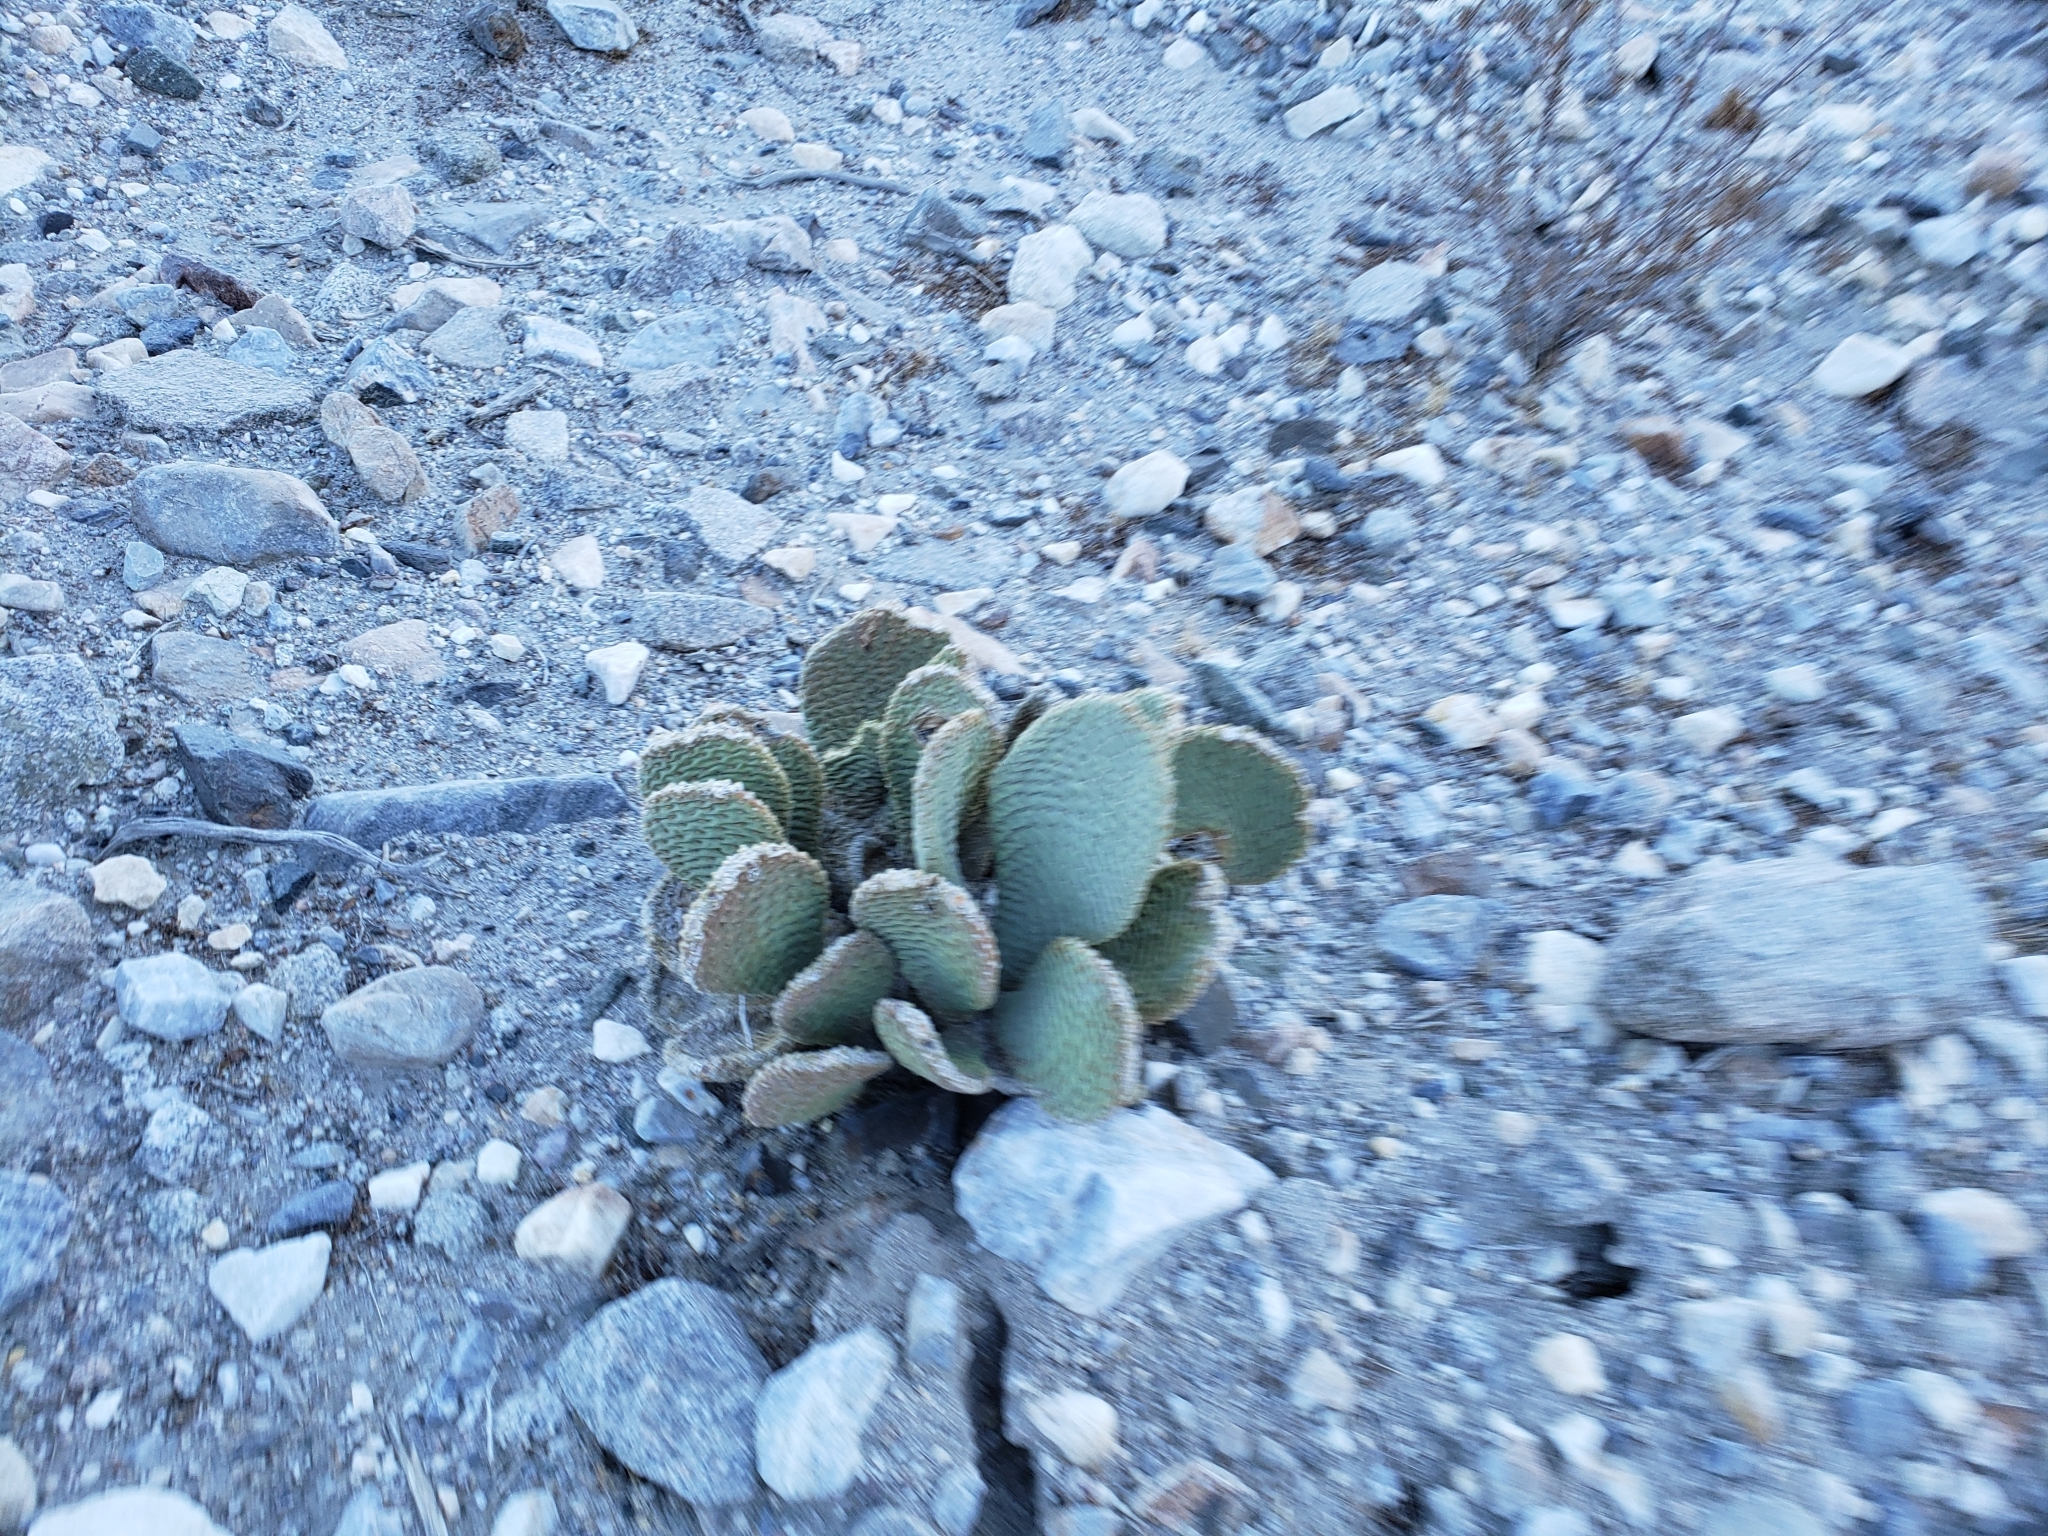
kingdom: Plantae
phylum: Tracheophyta
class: Magnoliopsida
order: Caryophyllales
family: Cactaceae
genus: Opuntia
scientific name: Opuntia basilaris
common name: Beavertail prickly-pear
